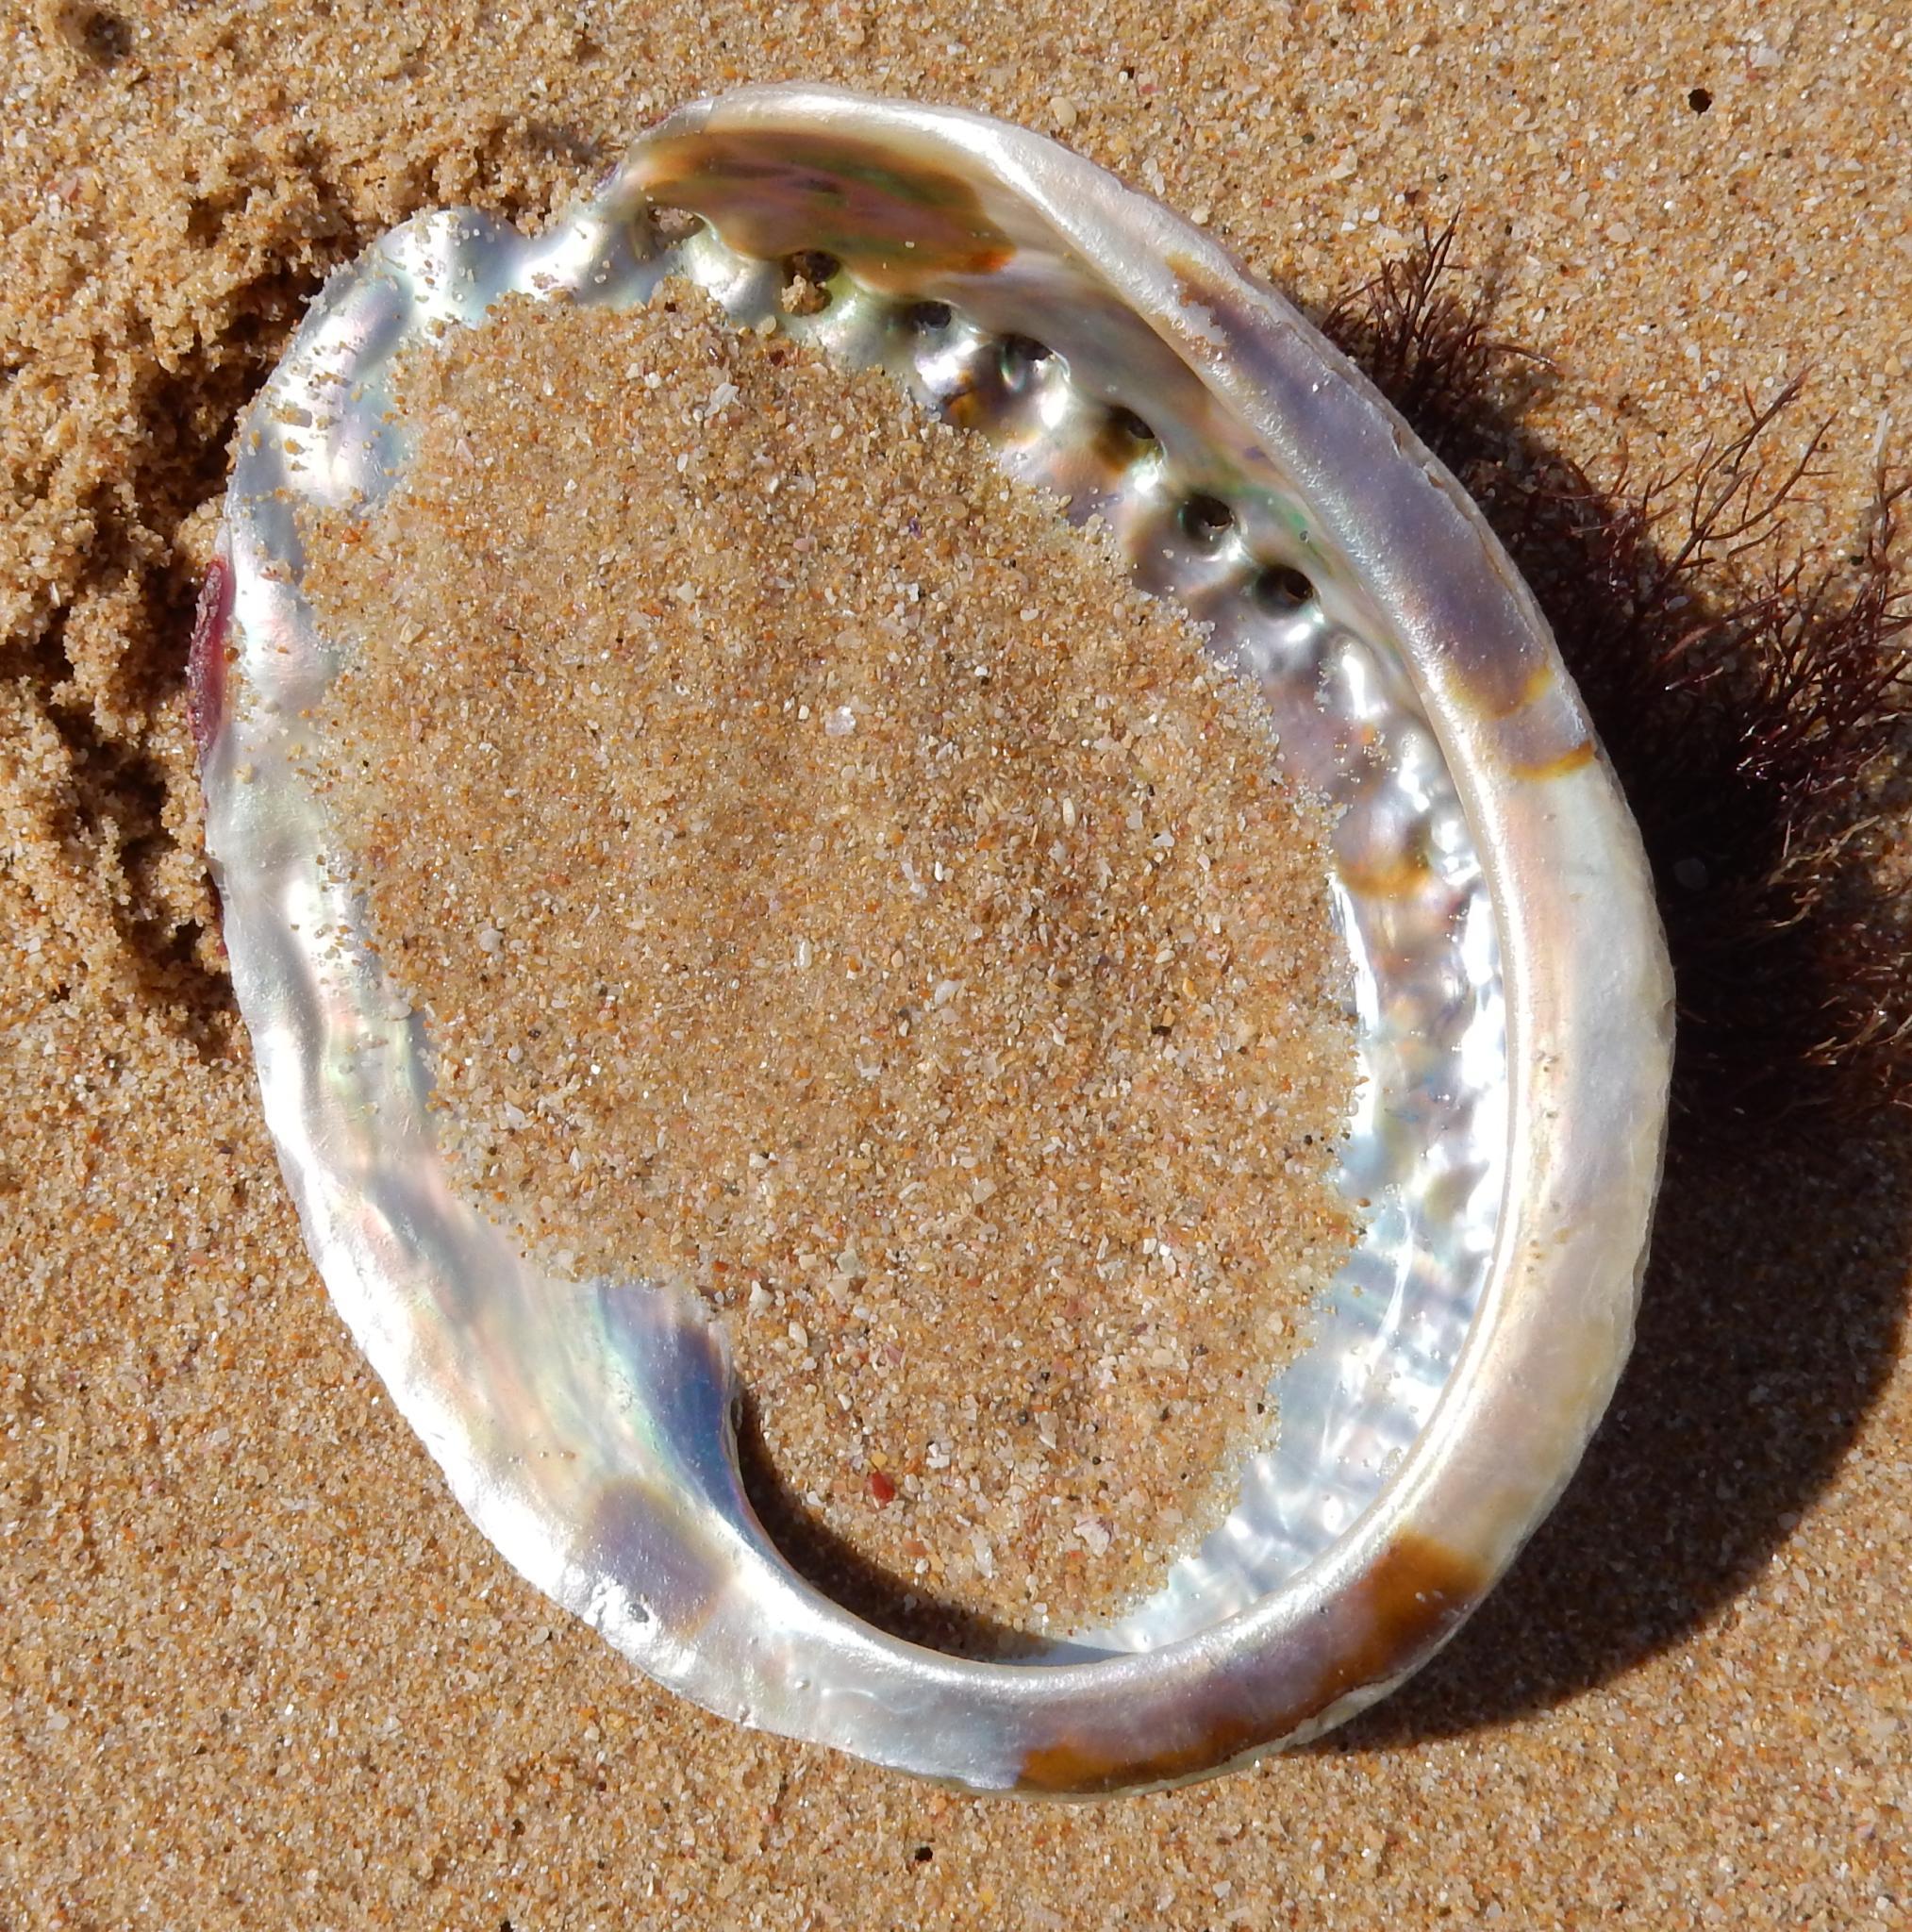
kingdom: Animalia
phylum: Mollusca
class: Gastropoda
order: Lepetellida
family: Haliotidae
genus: Haliotis
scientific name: Haliotis midae
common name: Perlemoen
